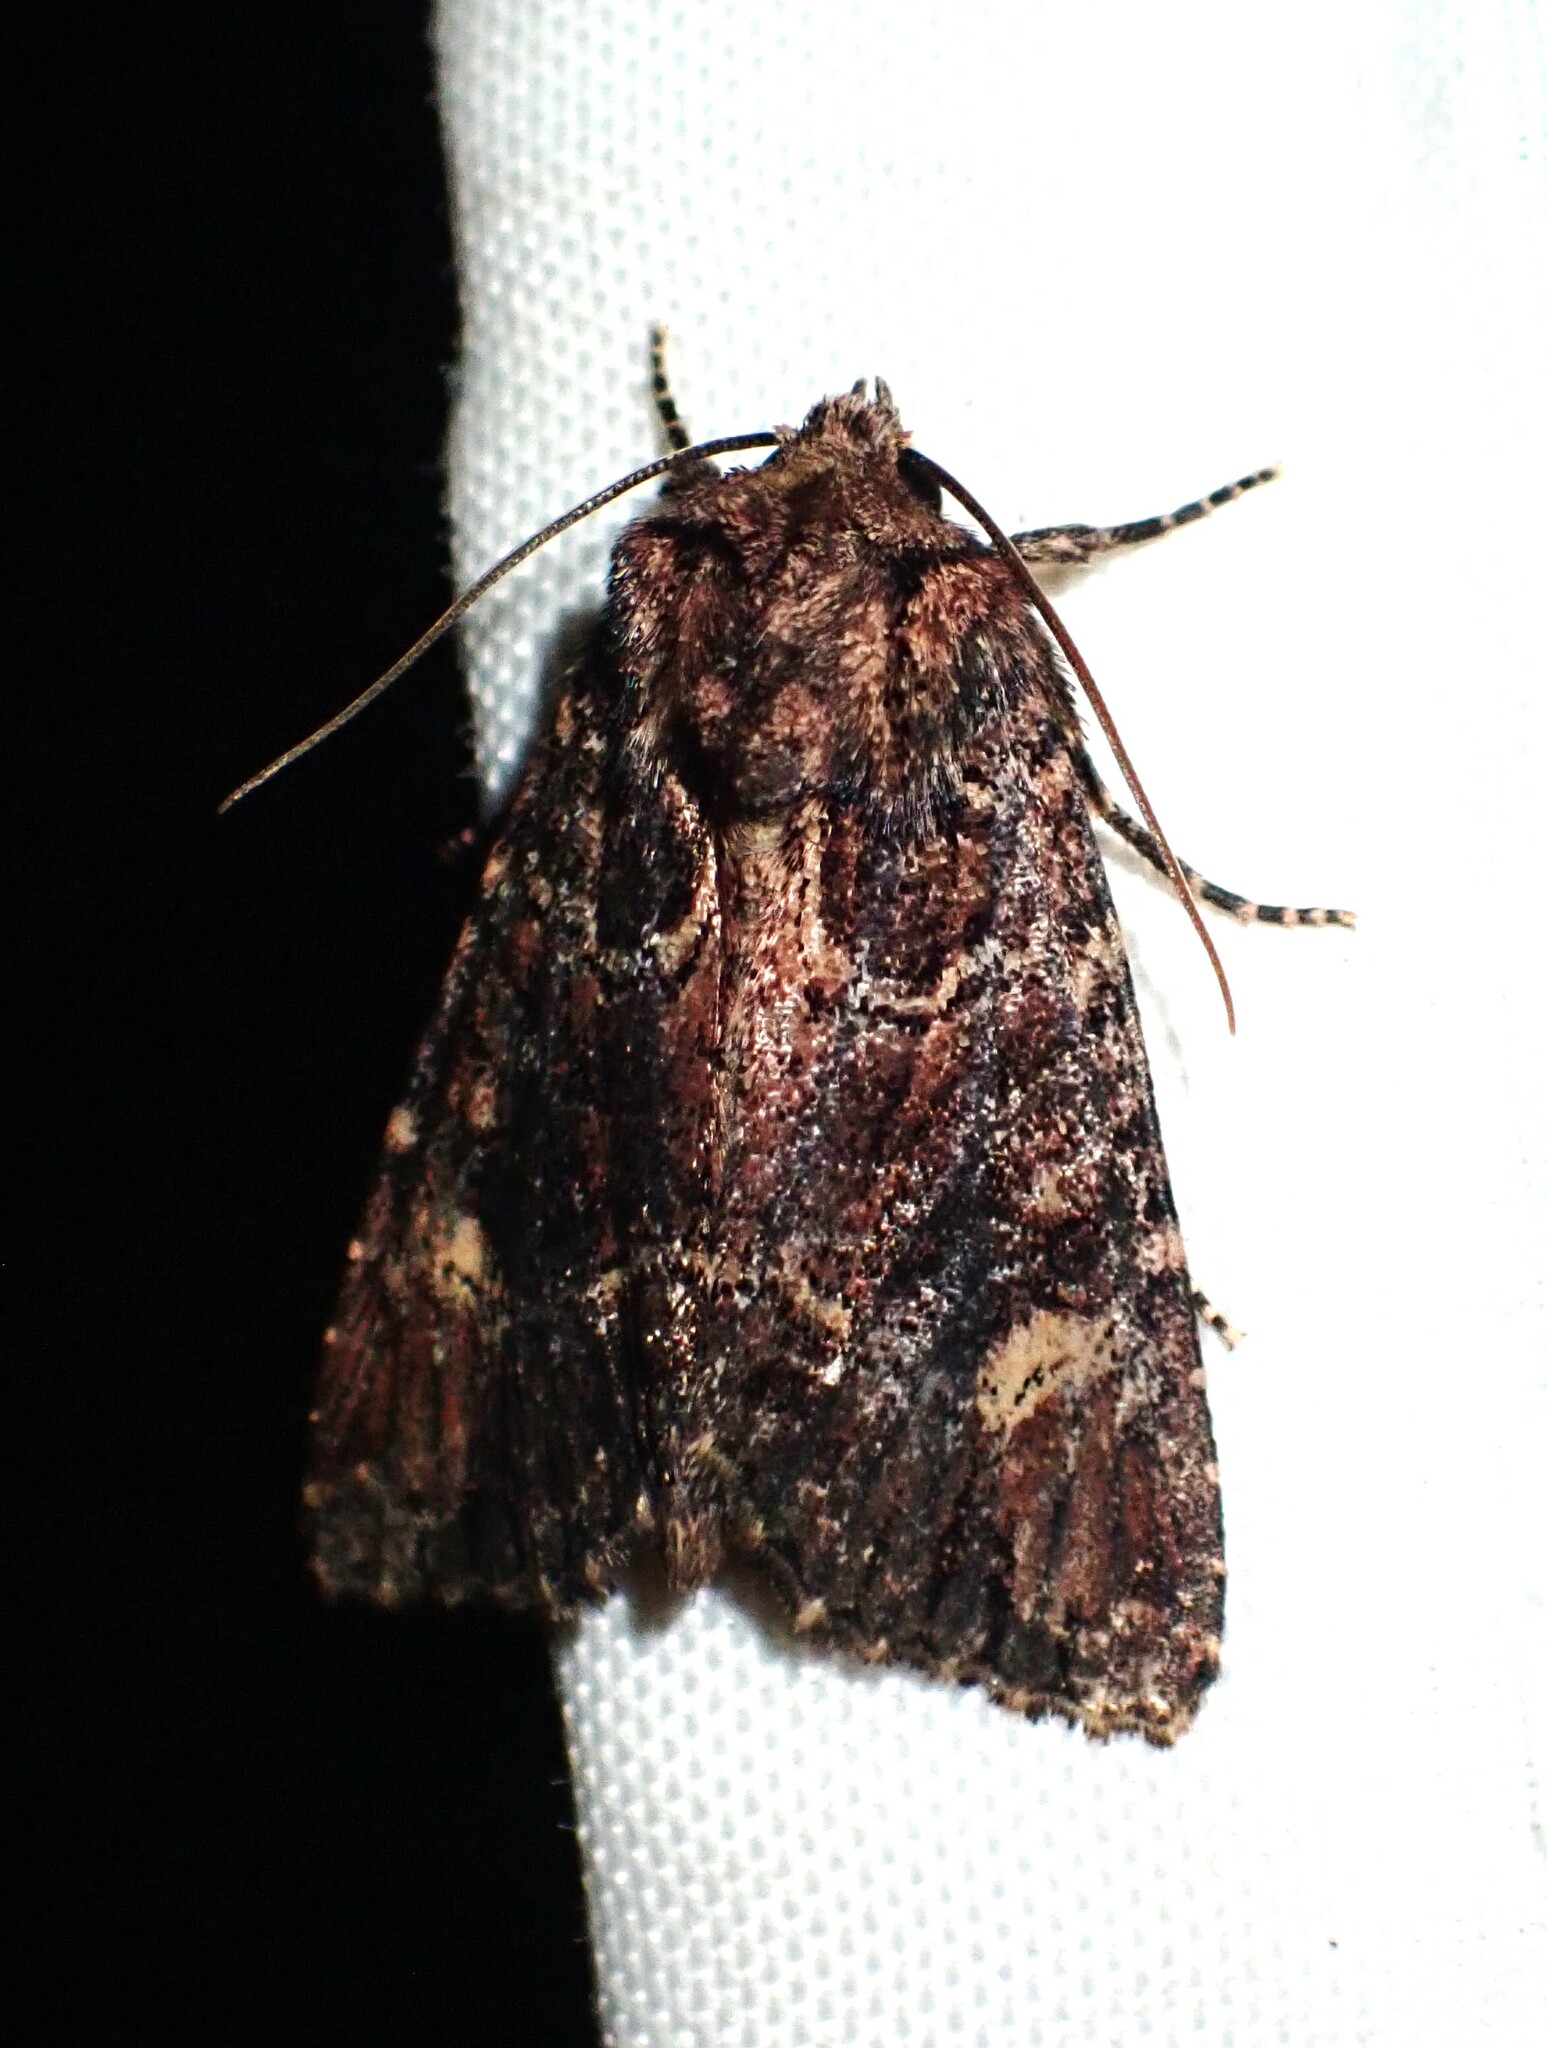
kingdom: Animalia
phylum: Arthropoda
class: Insecta
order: Lepidoptera
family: Noctuidae
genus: Aseptis
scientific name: Aseptis binotata
